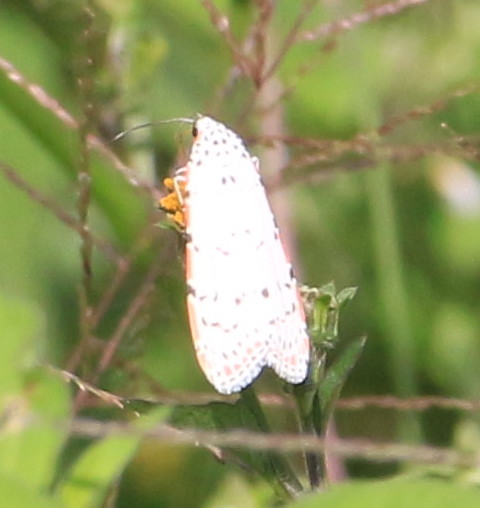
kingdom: Animalia
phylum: Arthropoda
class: Insecta
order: Lepidoptera
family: Erebidae
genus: Utetheisa
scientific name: Utetheisa ornatrix
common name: Beautiful utetheisa
